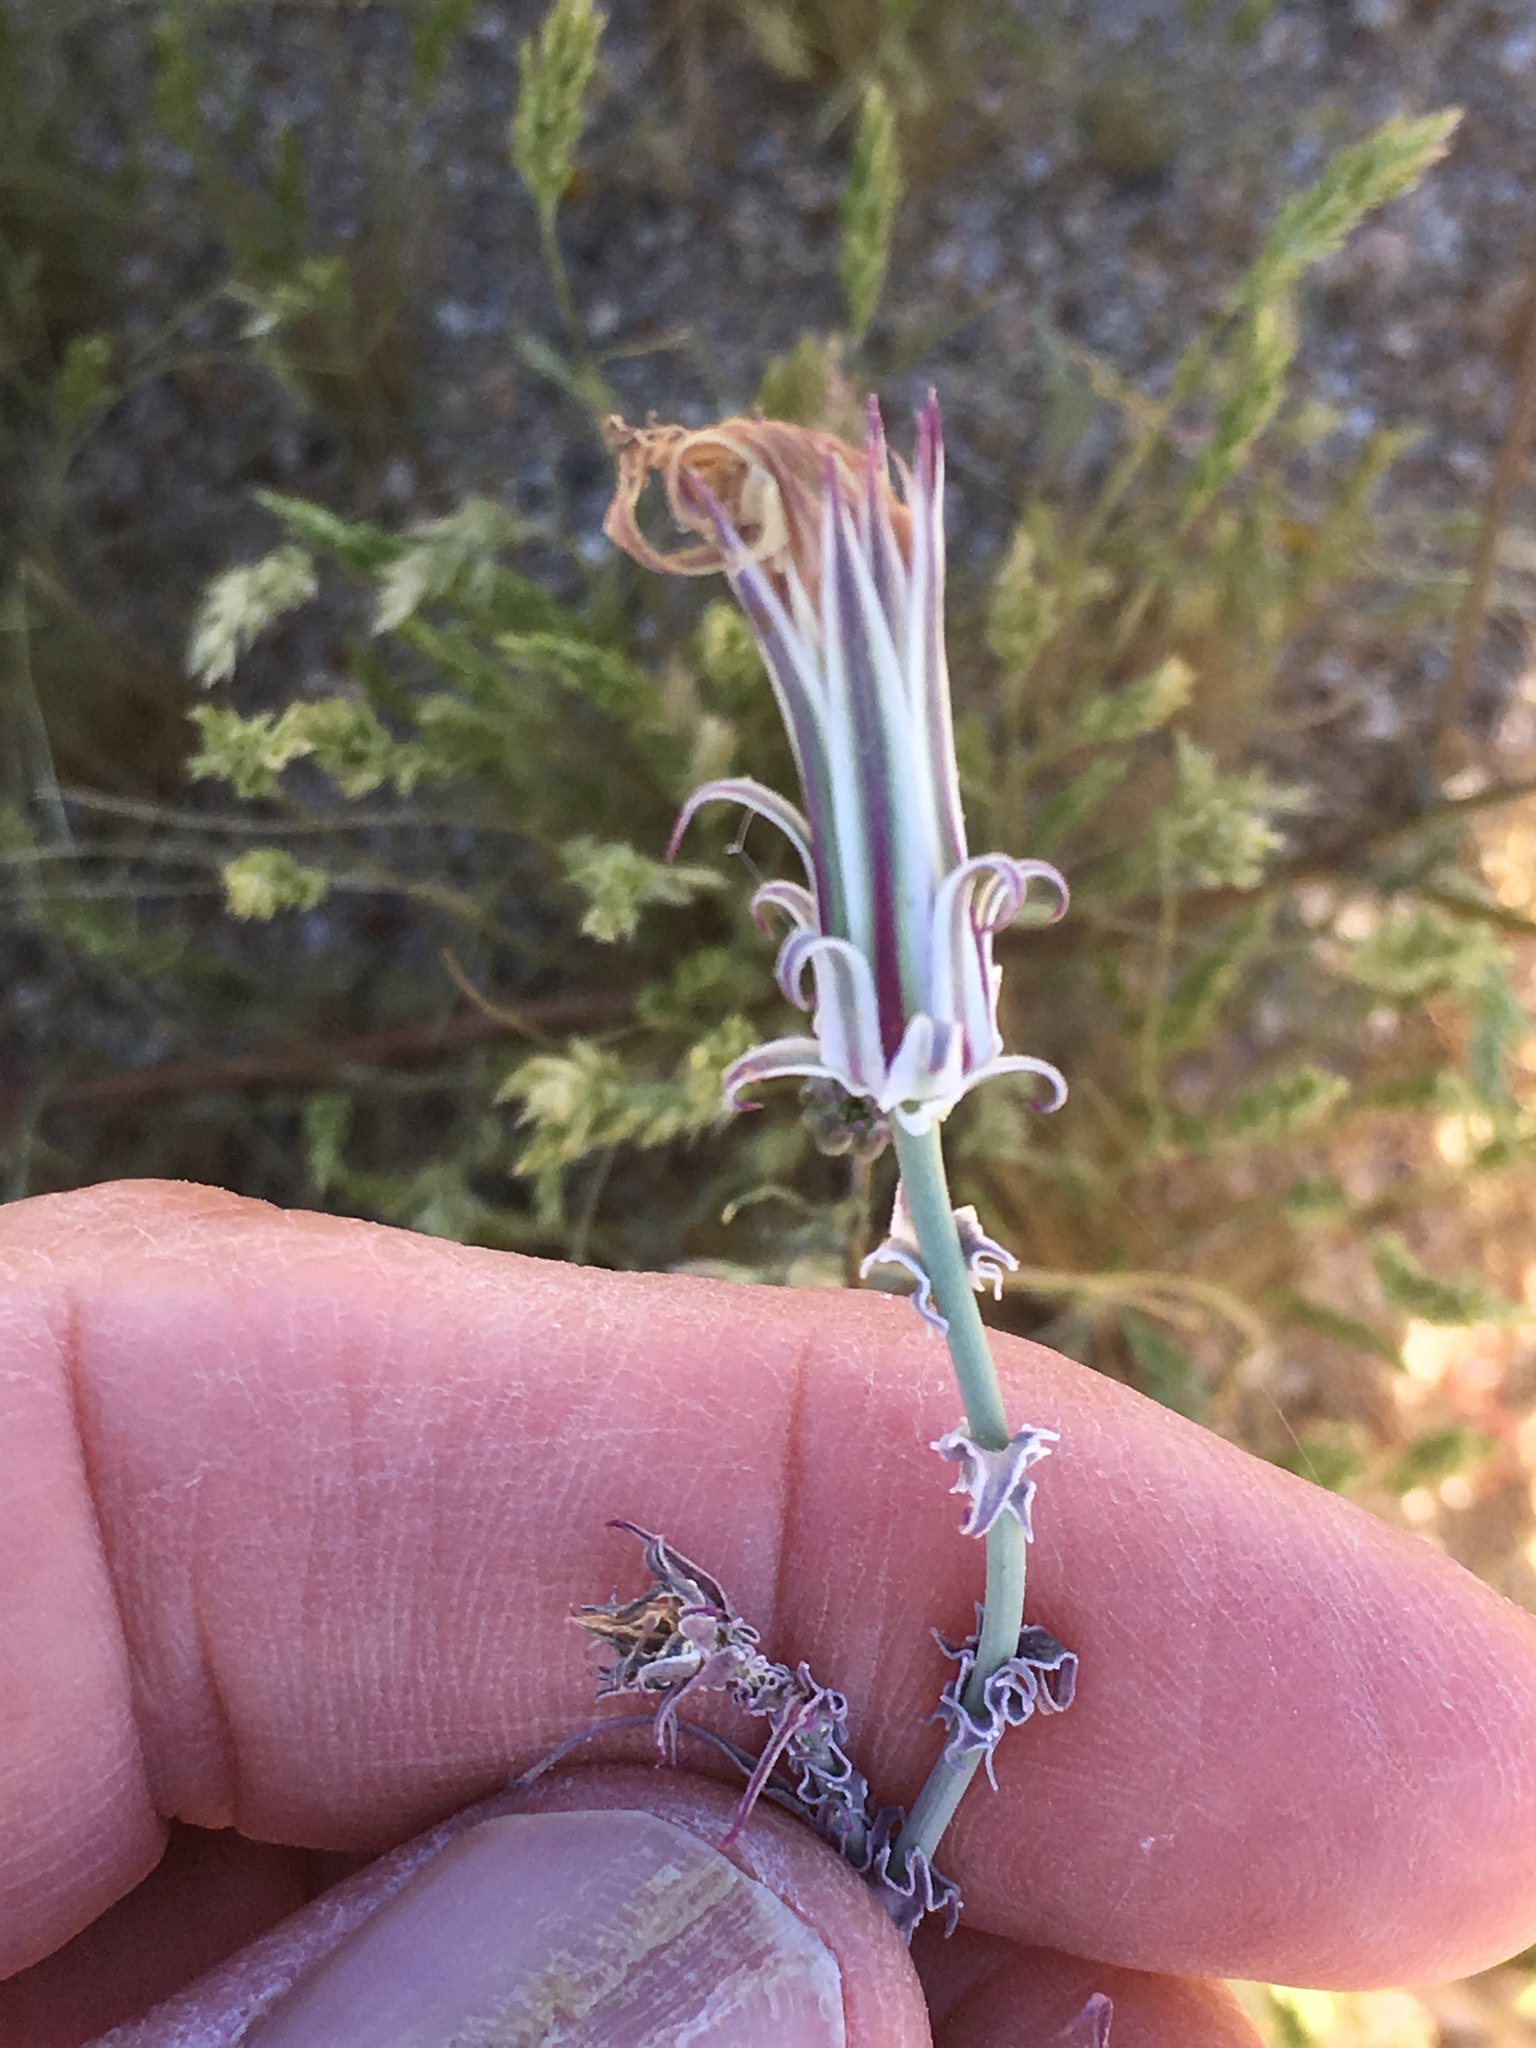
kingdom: Plantae
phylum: Tracheophyta
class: Magnoliopsida
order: Asterales
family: Asteraceae
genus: Rafinesquia
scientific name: Rafinesquia neomexicana
